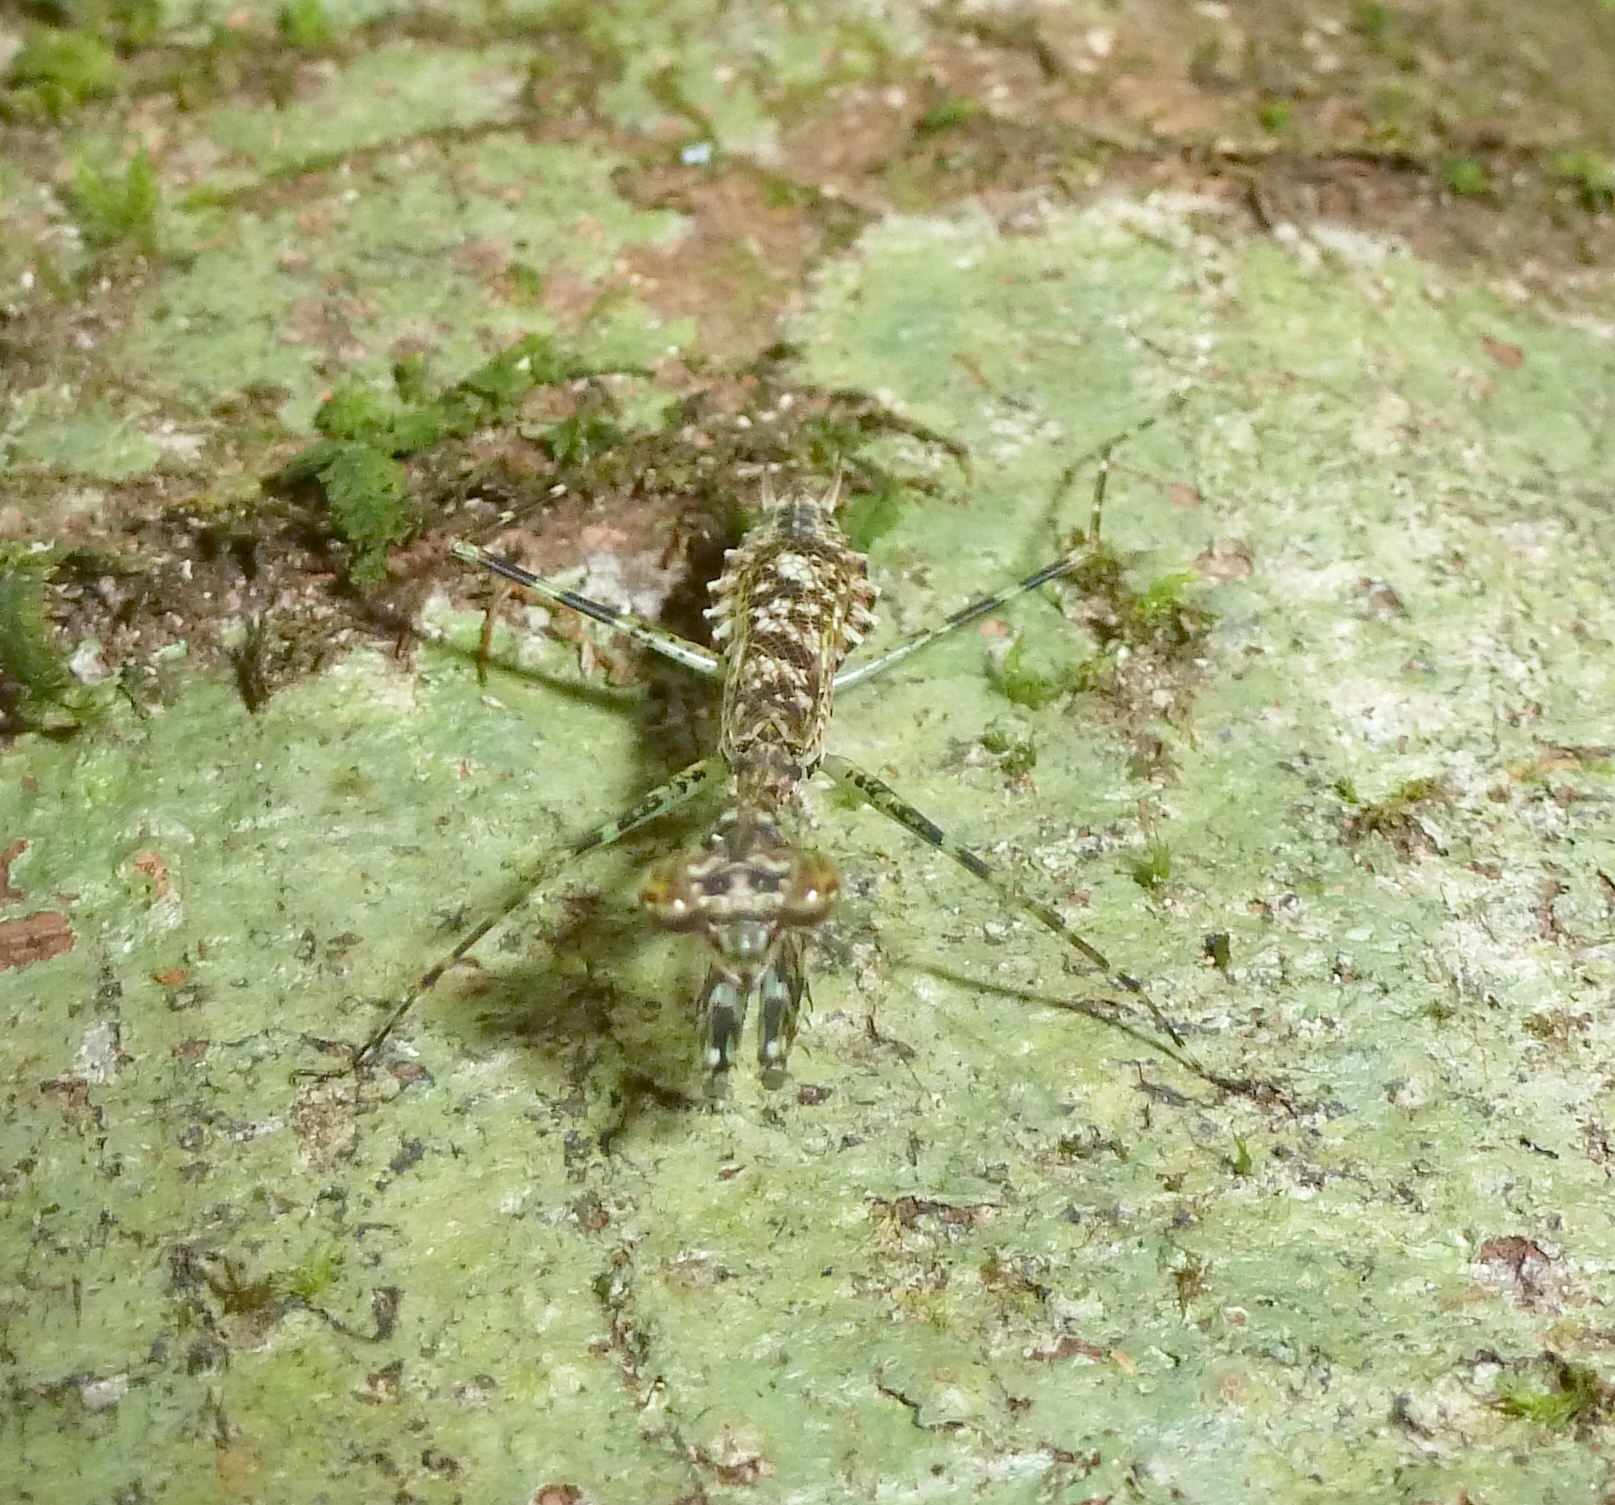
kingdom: Animalia
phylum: Arthropoda
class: Insecta
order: Mantodea
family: Majangidae
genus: Liturgusella
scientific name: Liturgusella malagassa
